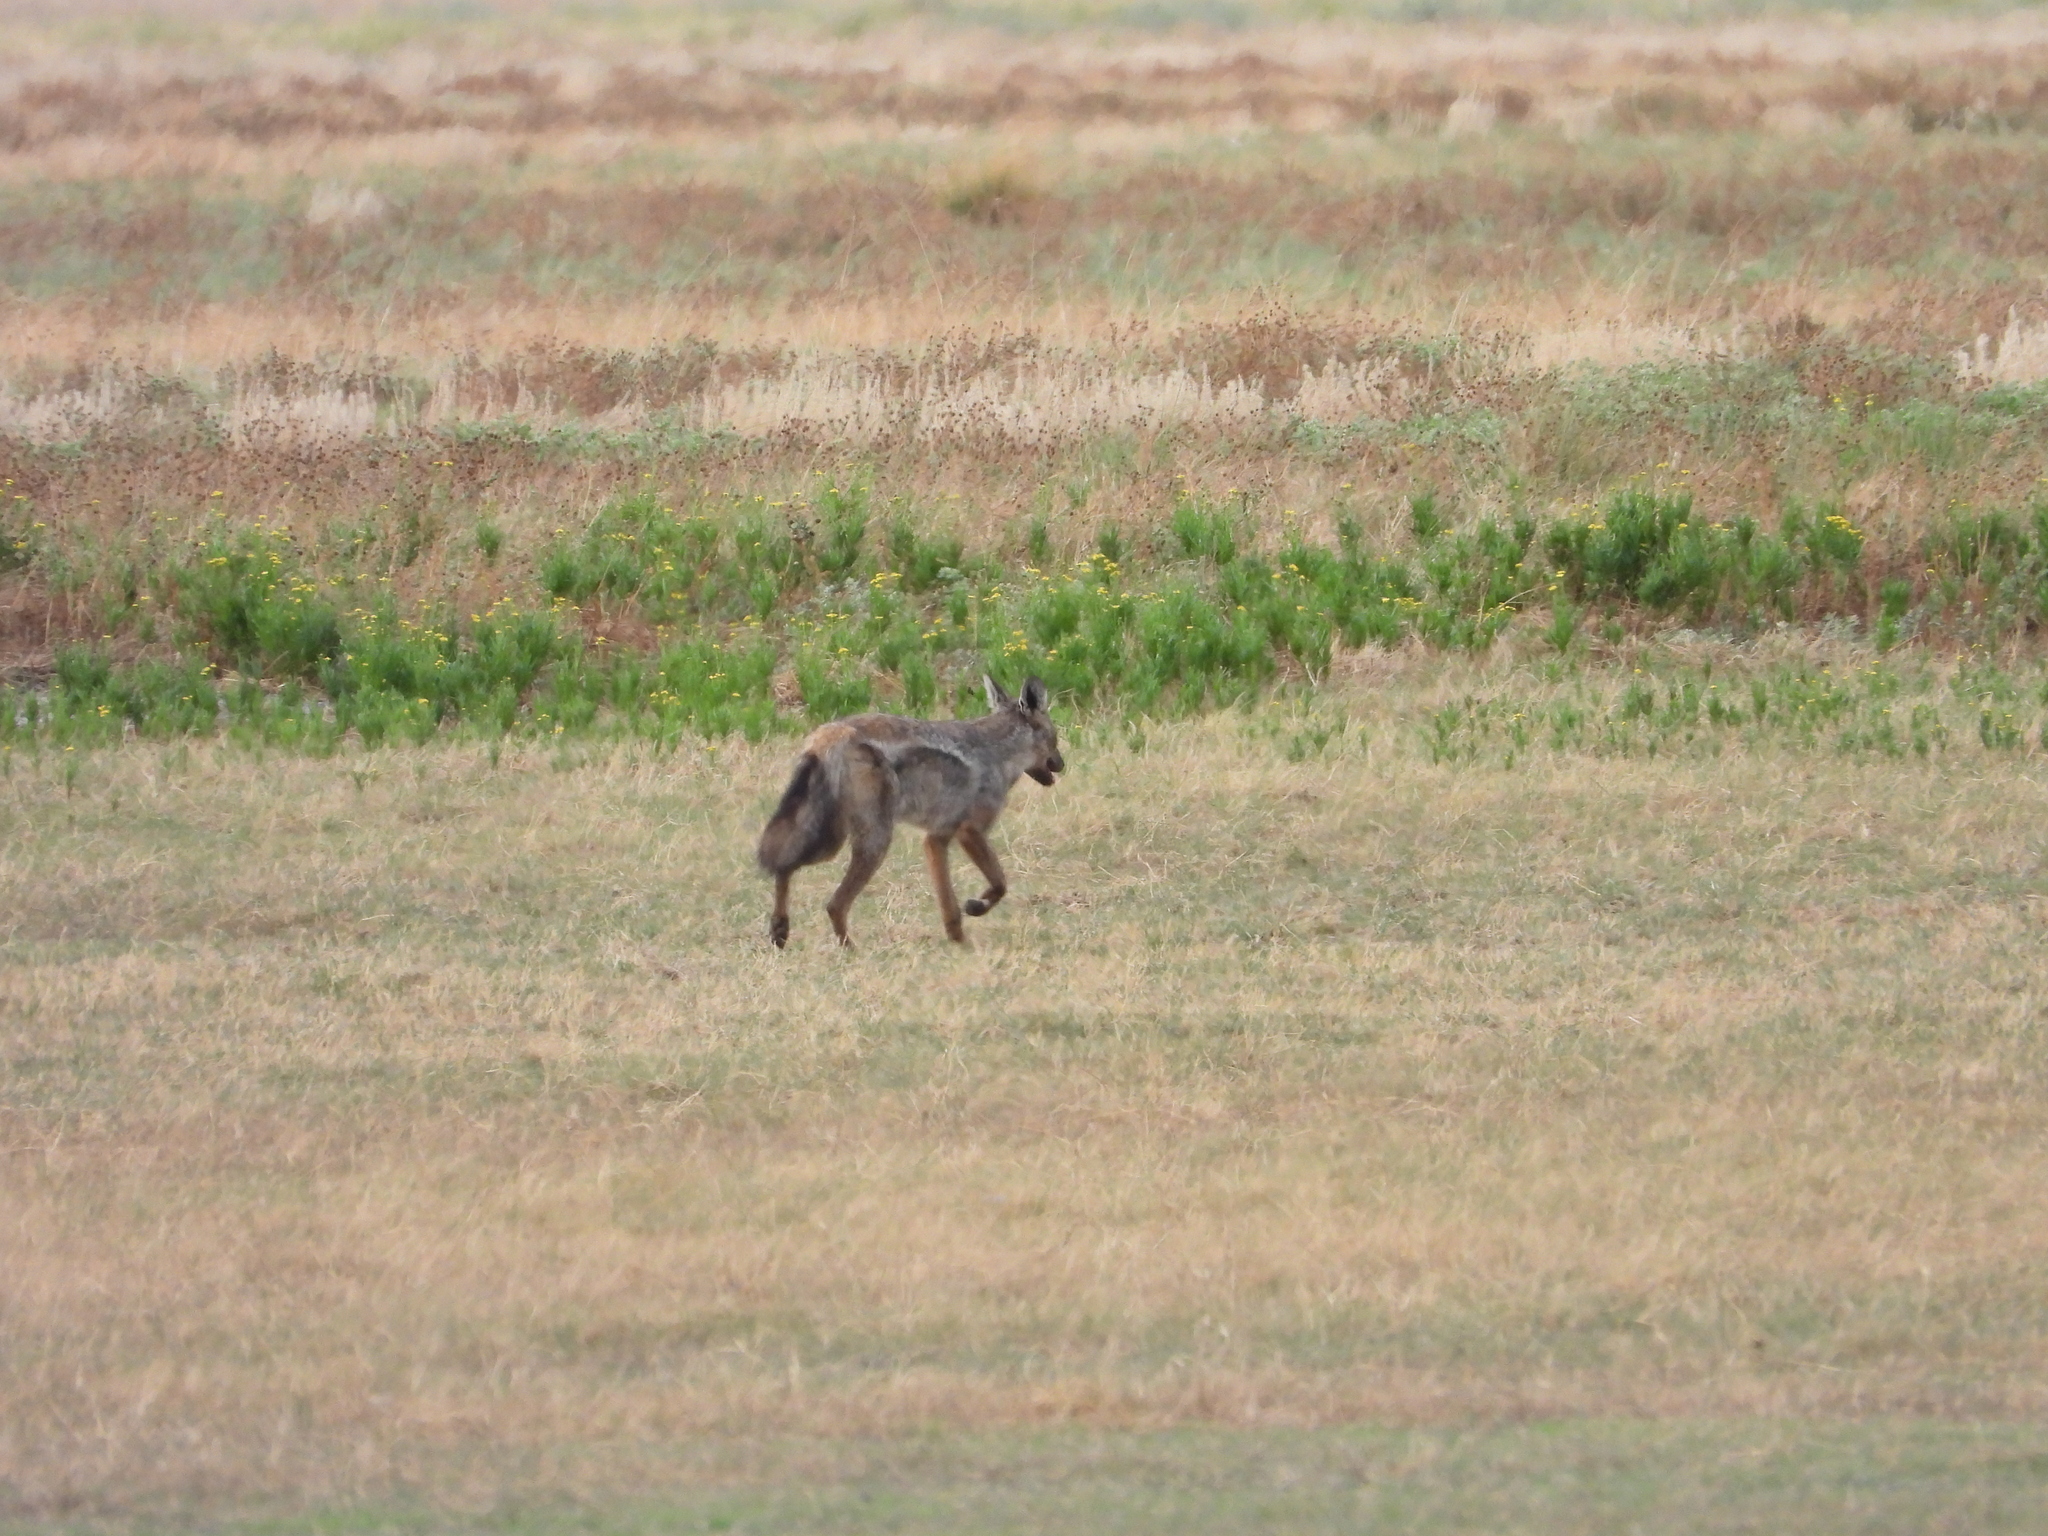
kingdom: Animalia
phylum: Chordata
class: Mammalia
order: Carnivora
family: Canidae
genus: Lupulella
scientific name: Lupulella
